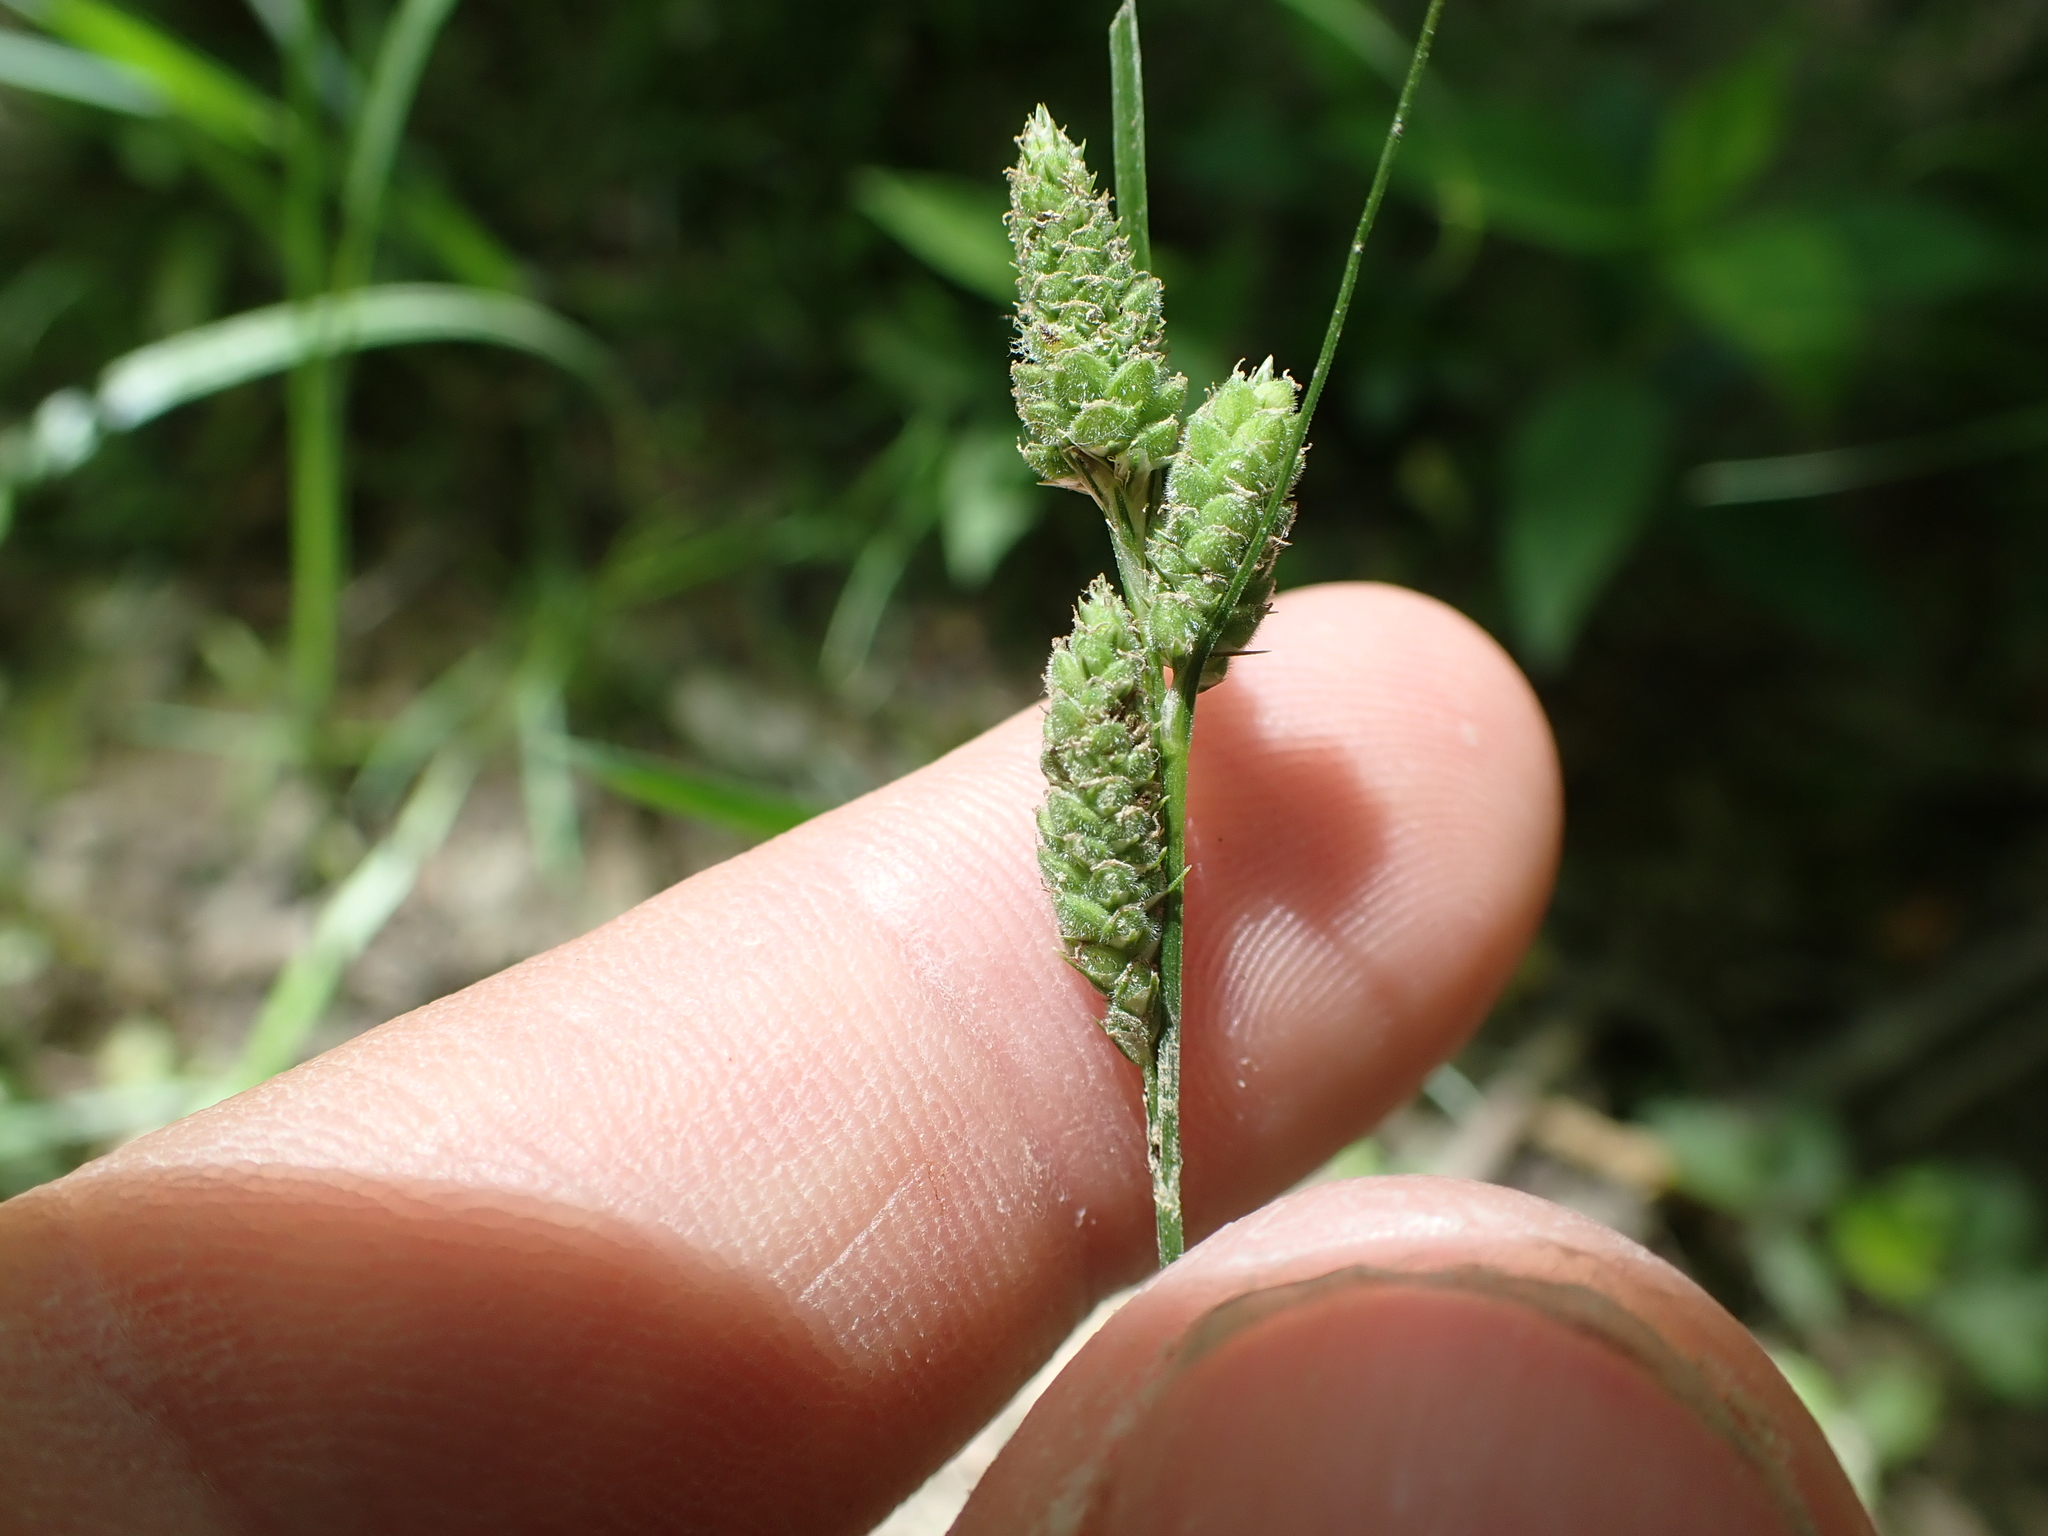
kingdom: Plantae
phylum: Tracheophyta
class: Liliopsida
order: Poales
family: Cyperaceae
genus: Carex
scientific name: Carex swanii
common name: Downy green sedge
